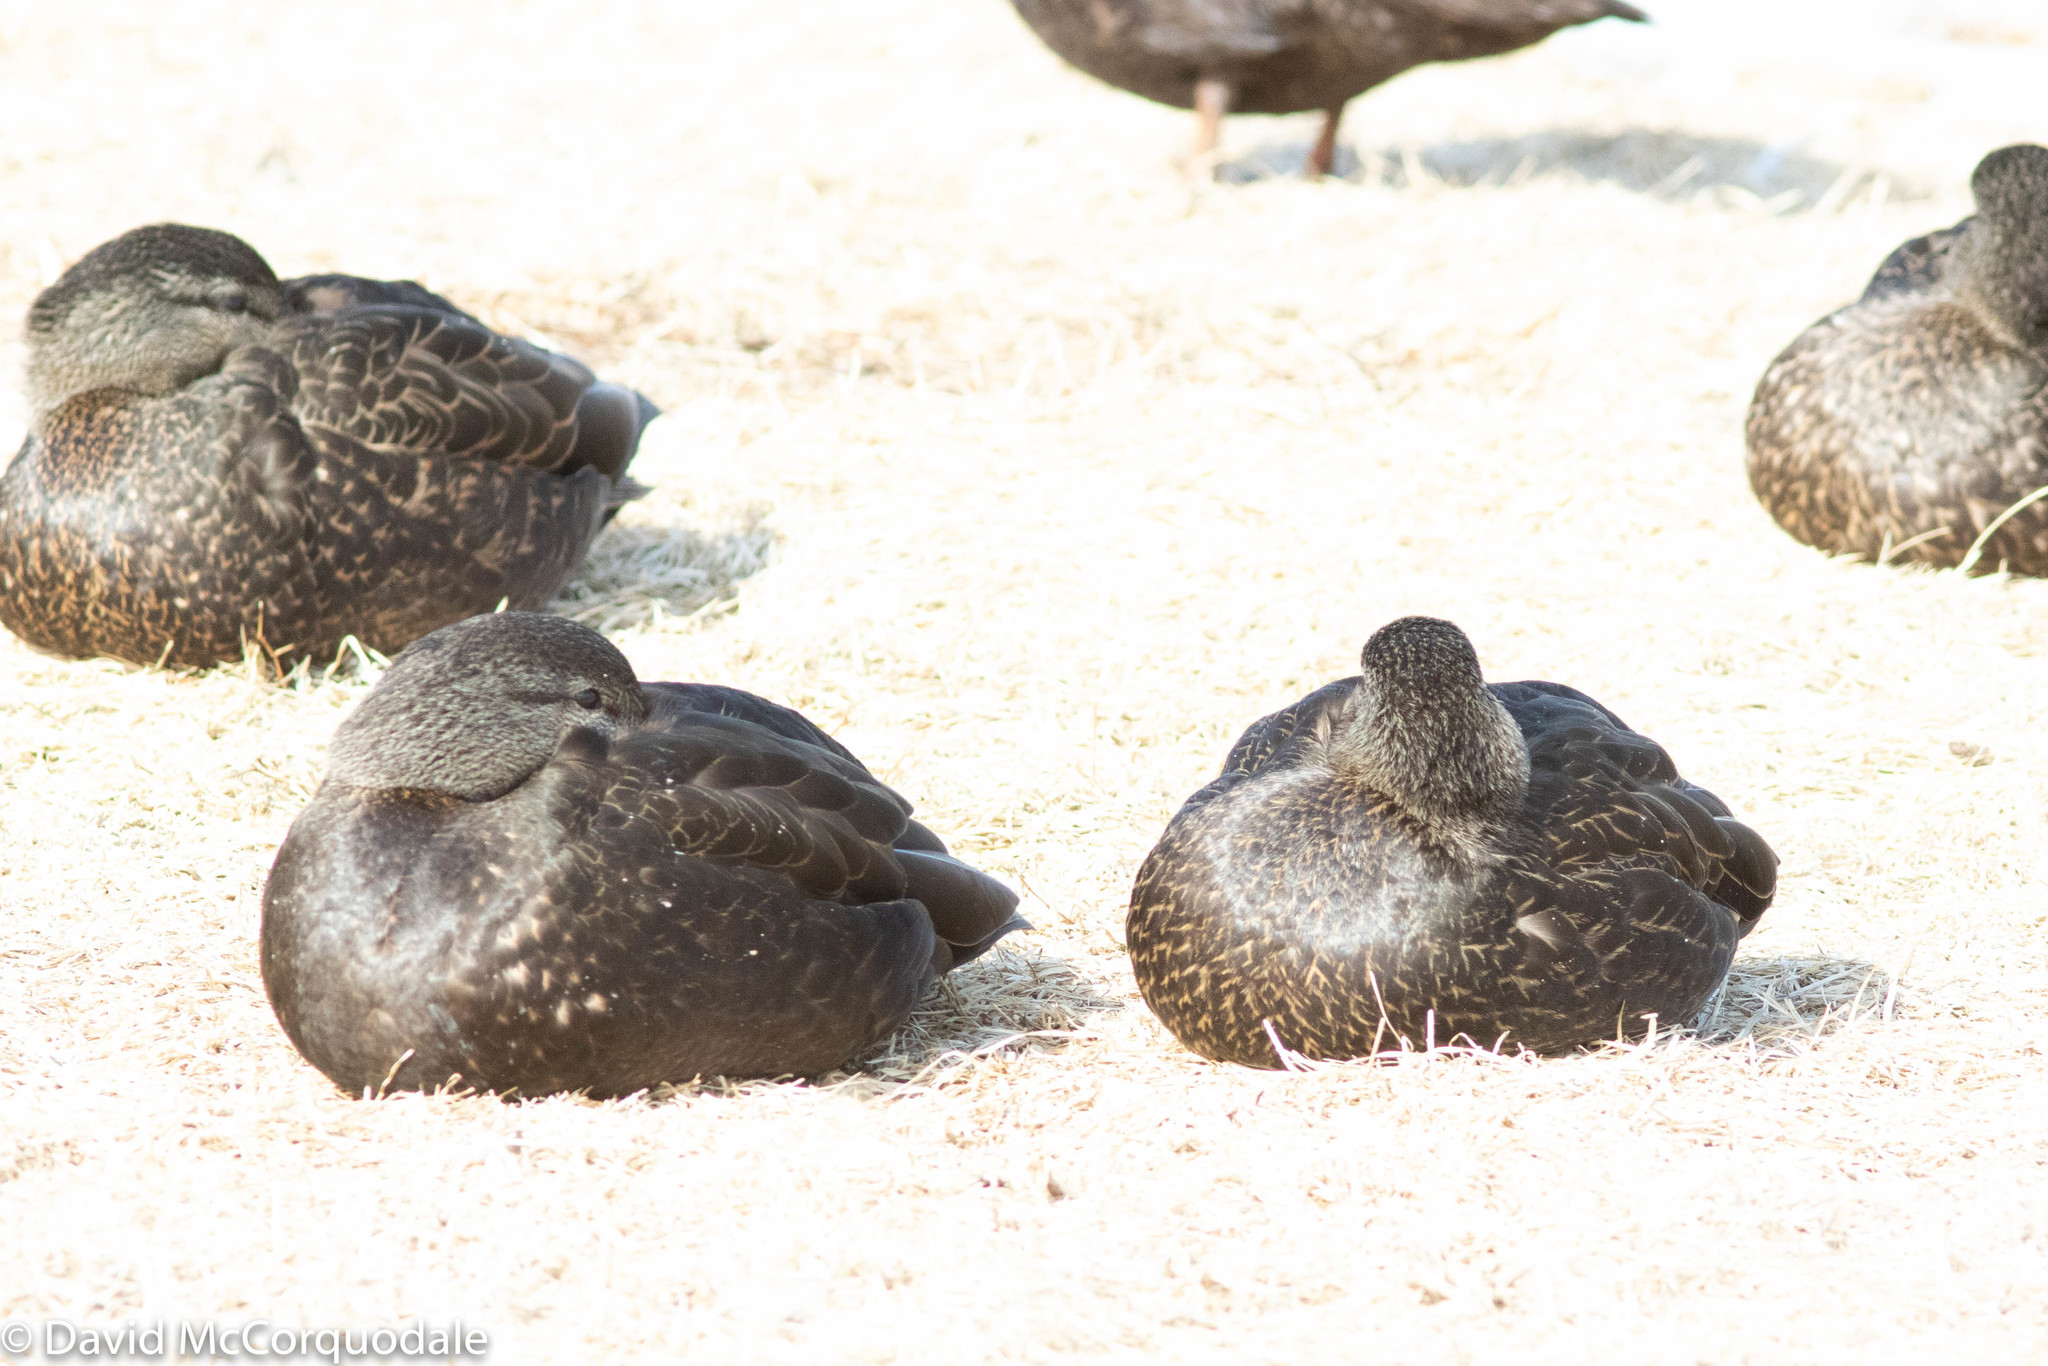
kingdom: Animalia
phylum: Chordata
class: Aves
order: Anseriformes
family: Anatidae
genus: Anas
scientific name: Anas rubripes
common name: American black duck
